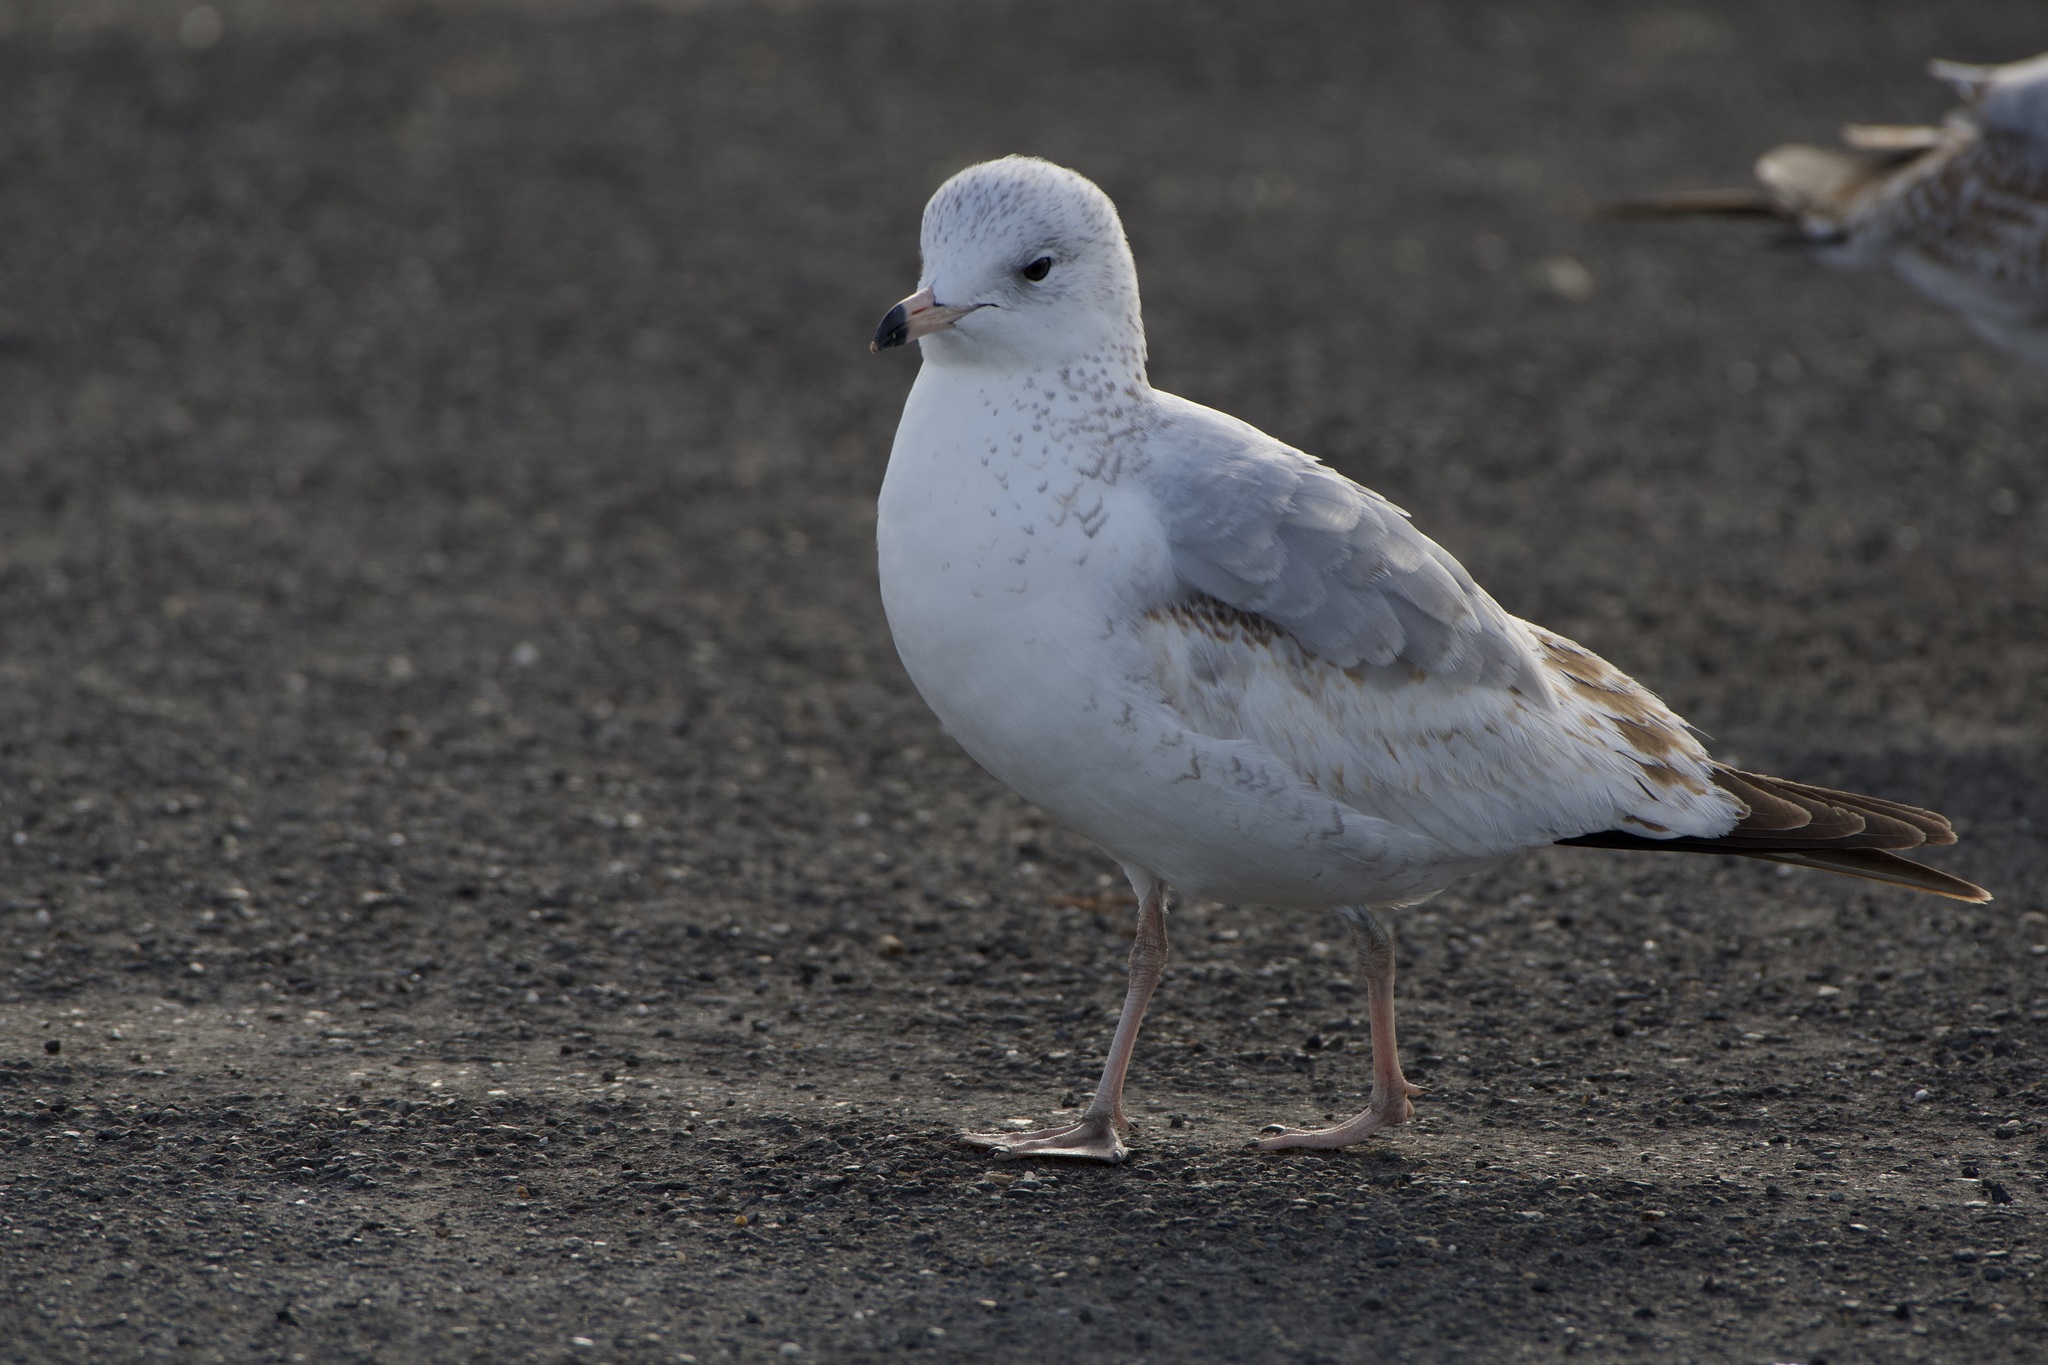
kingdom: Animalia
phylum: Chordata
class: Aves
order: Charadriiformes
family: Laridae
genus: Larus
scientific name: Larus brachyrhynchus
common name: Short-billed gull
